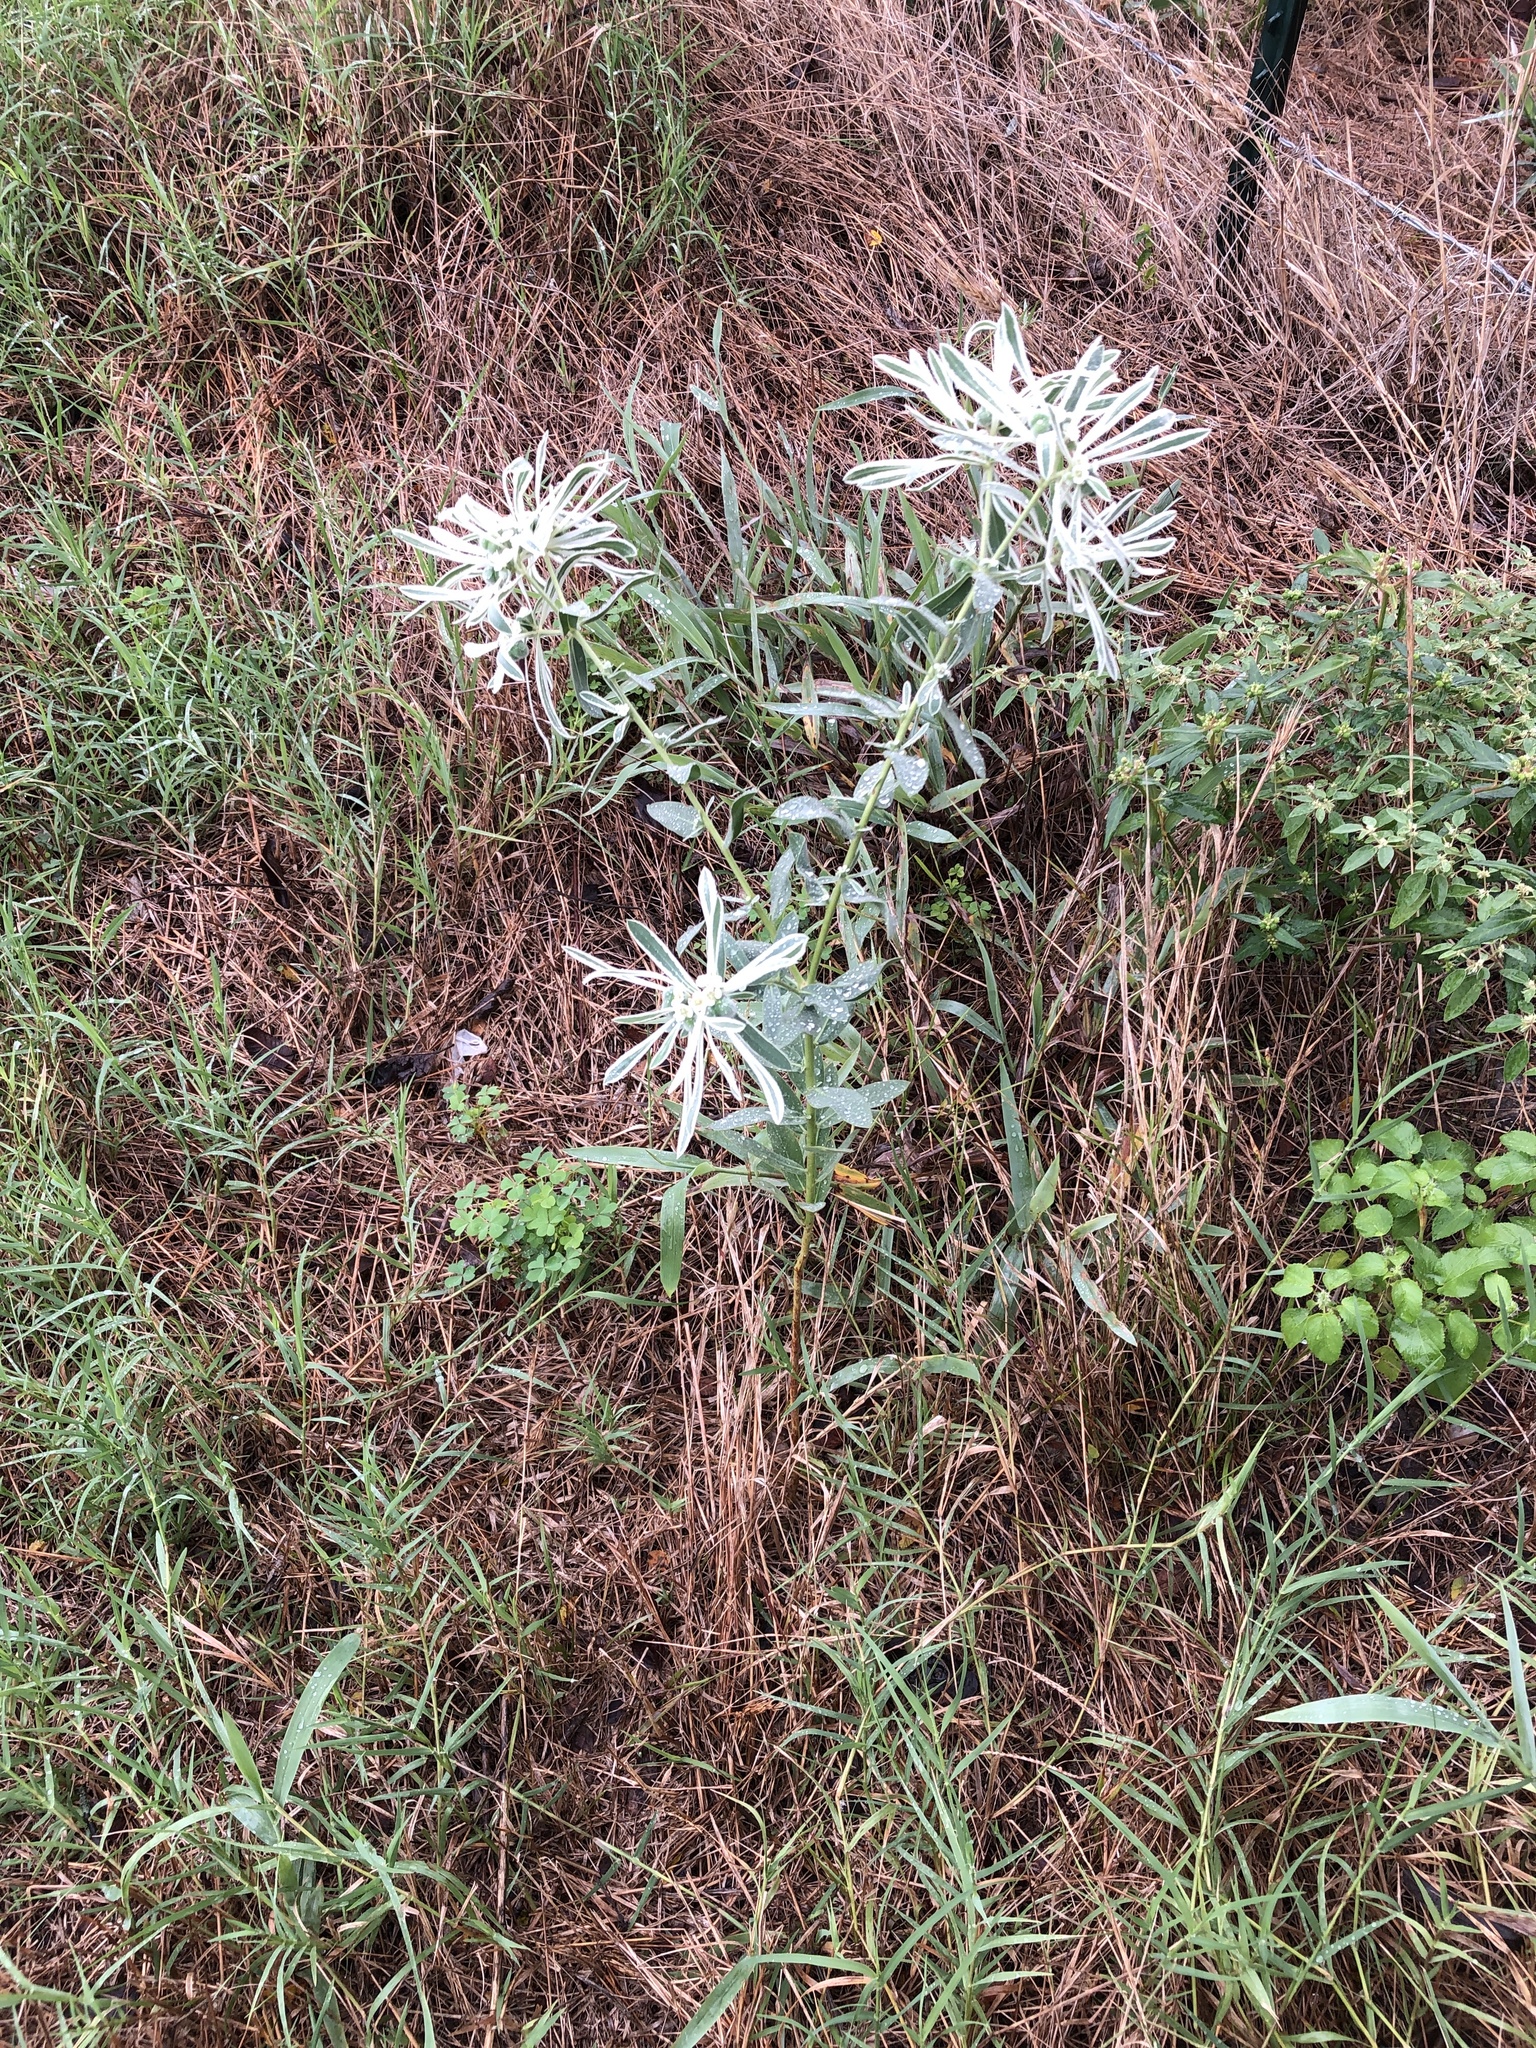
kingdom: Plantae
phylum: Tracheophyta
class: Magnoliopsida
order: Malpighiales
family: Euphorbiaceae
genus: Euphorbia
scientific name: Euphorbia bicolor
